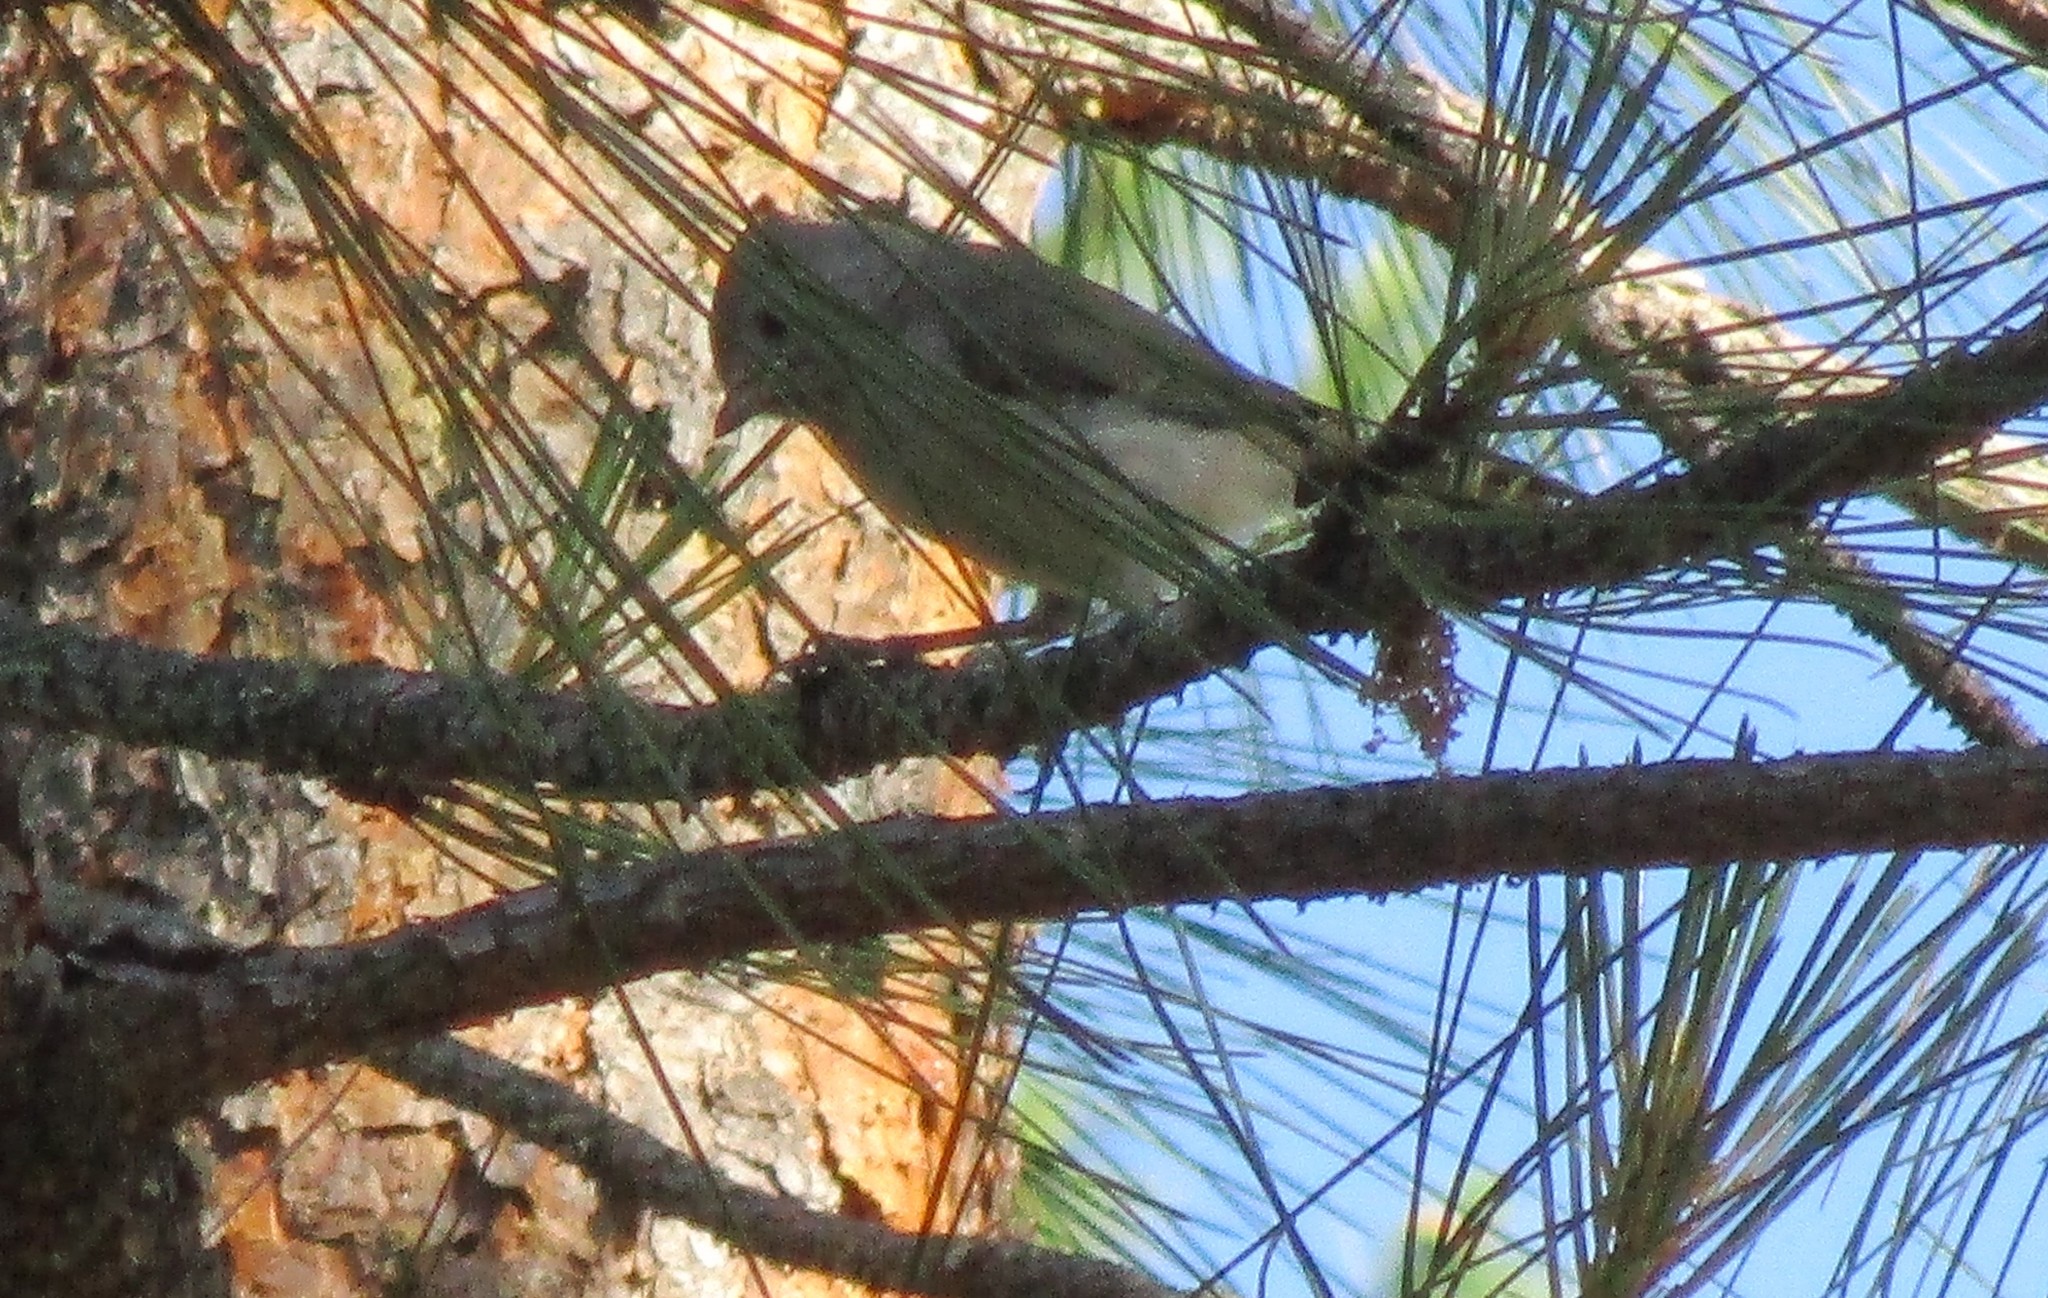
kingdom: Animalia
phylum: Chordata
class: Aves
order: Passeriformes
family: Paridae
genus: Baeolophus
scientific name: Baeolophus inornatus
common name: Oak titmouse
